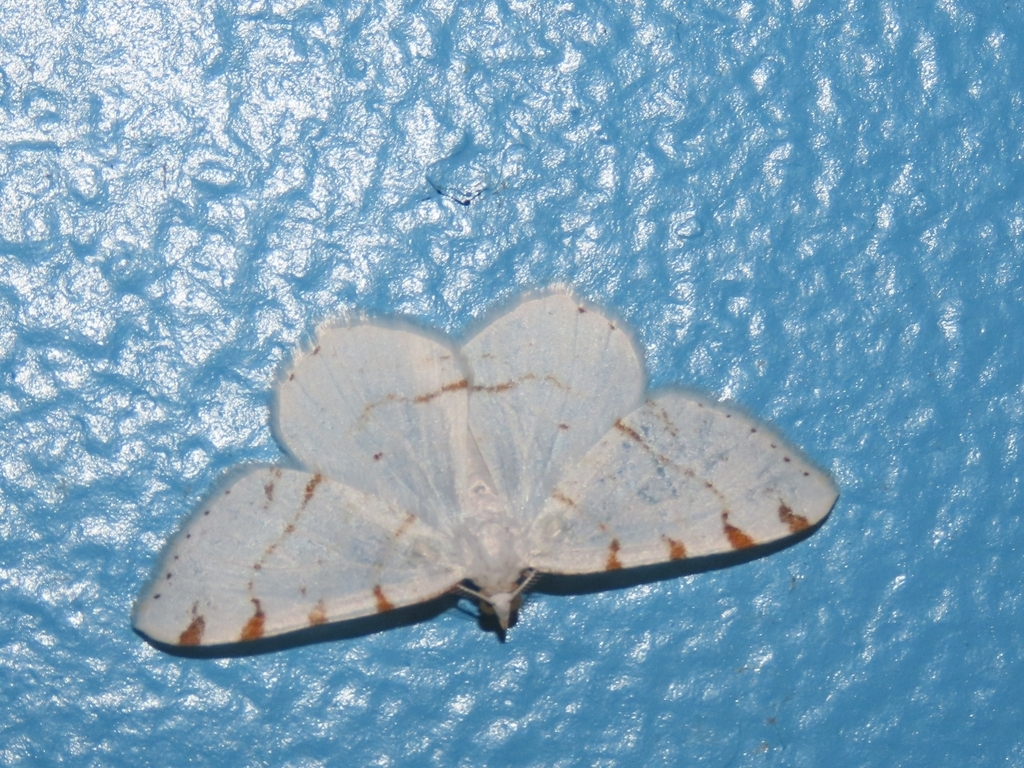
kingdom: Animalia
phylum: Arthropoda
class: Insecta
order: Lepidoptera
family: Geometridae
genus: Macaria
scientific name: Macaria pustularia
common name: Lesser maple spanworm moth
